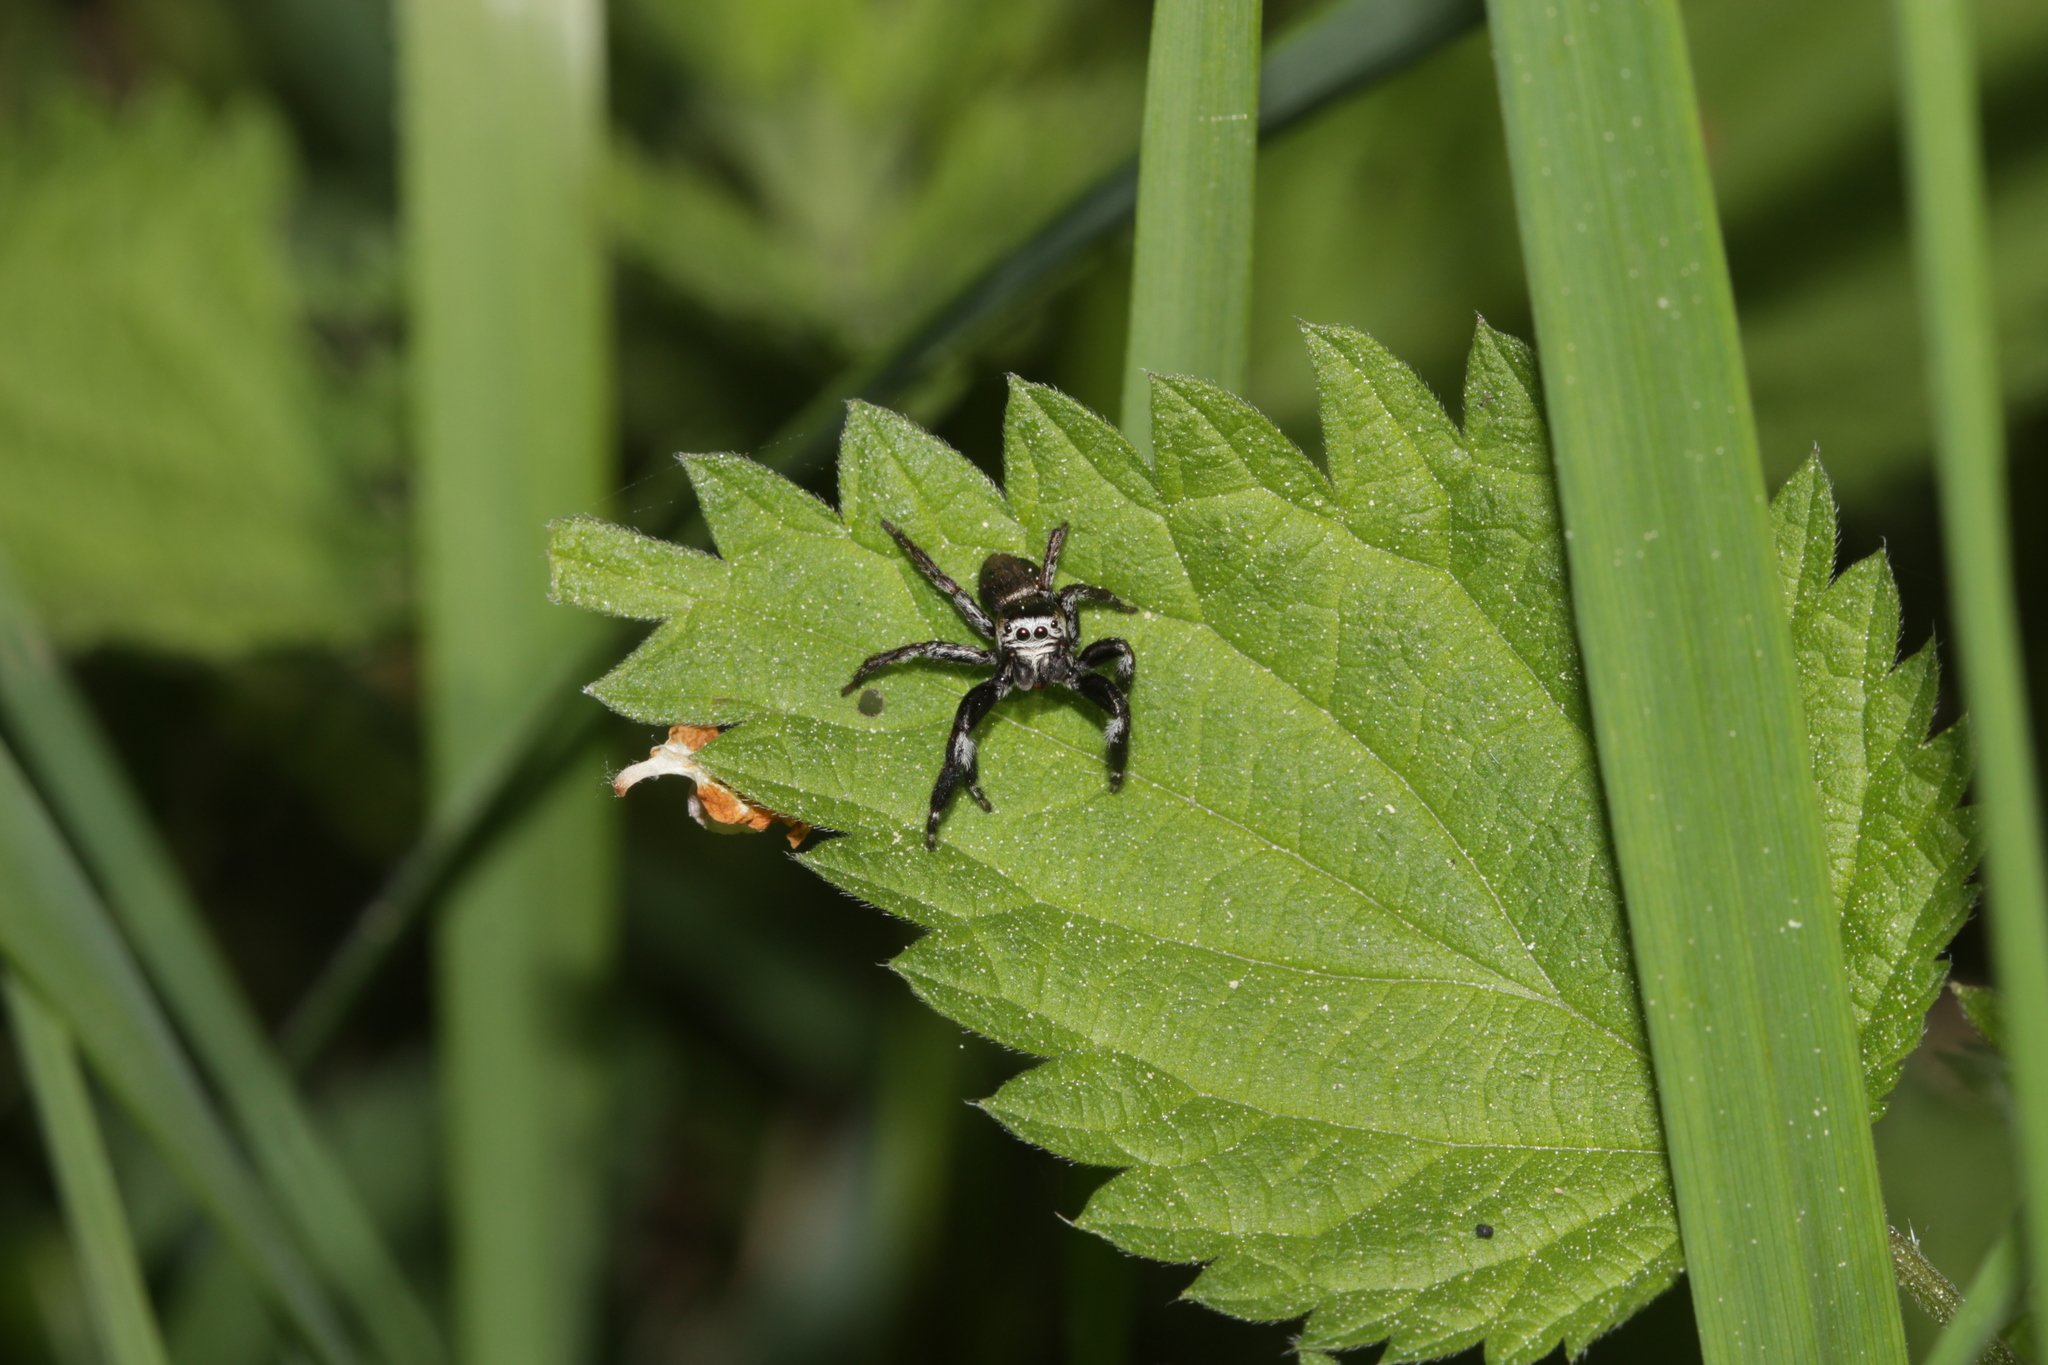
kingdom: Animalia
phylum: Arthropoda
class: Arachnida
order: Araneae
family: Salticidae
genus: Evarcha
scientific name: Evarcha arcuata
